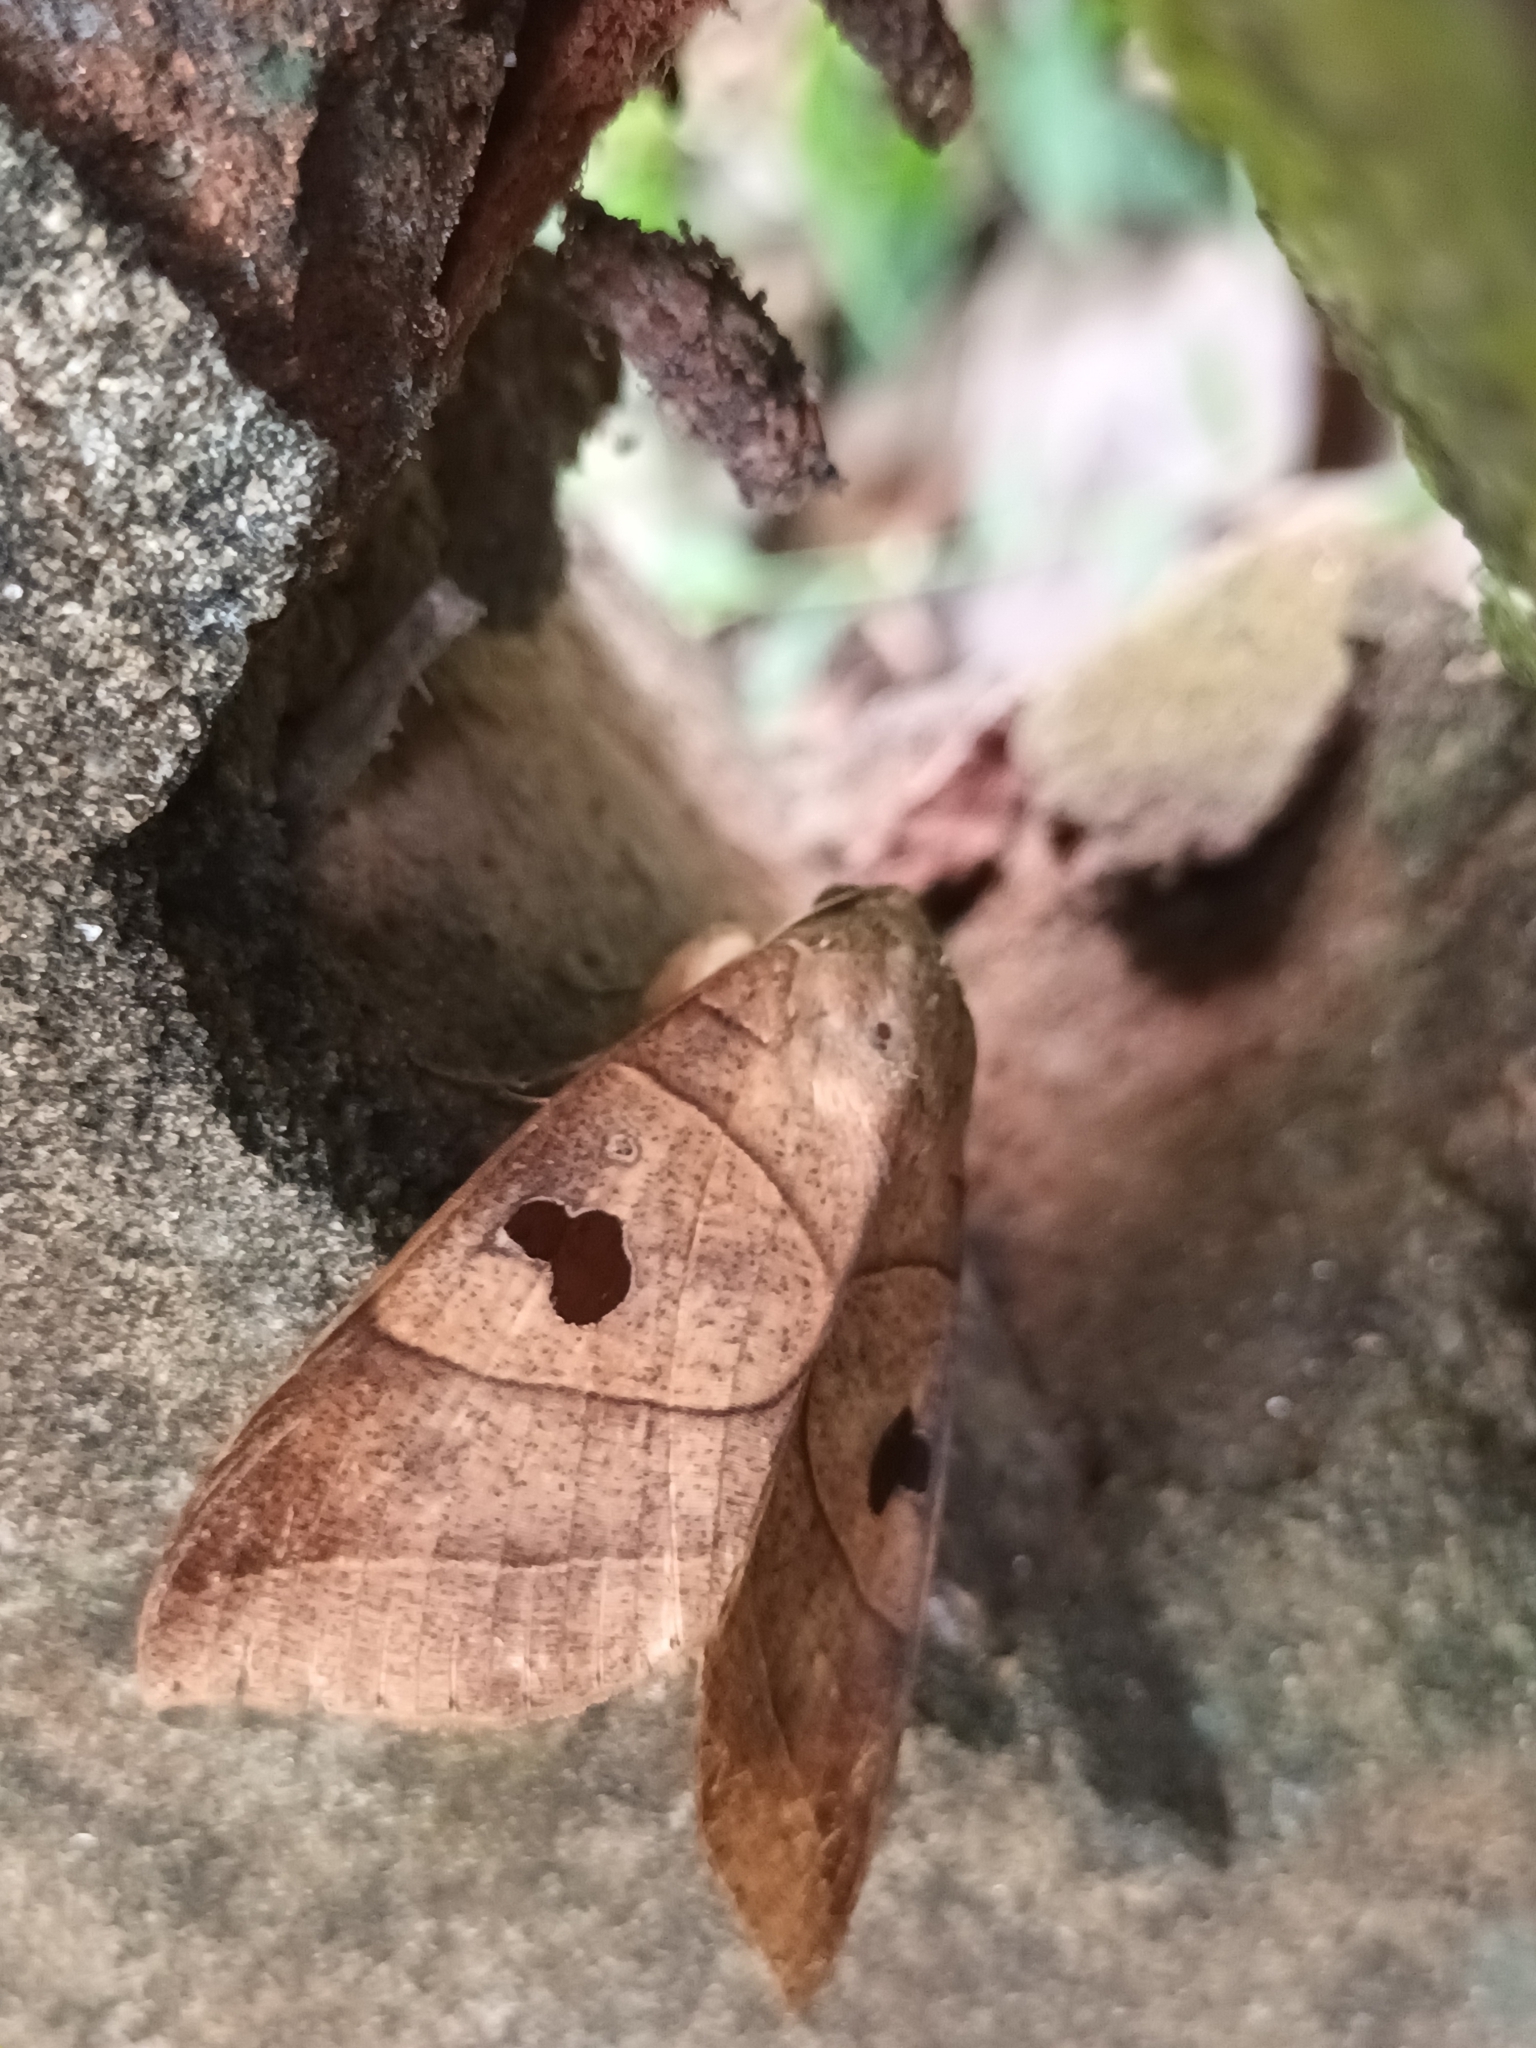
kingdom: Animalia
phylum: Arthropoda
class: Insecta
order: Lepidoptera
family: Erebidae
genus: Thyas
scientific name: Thyas coronata
